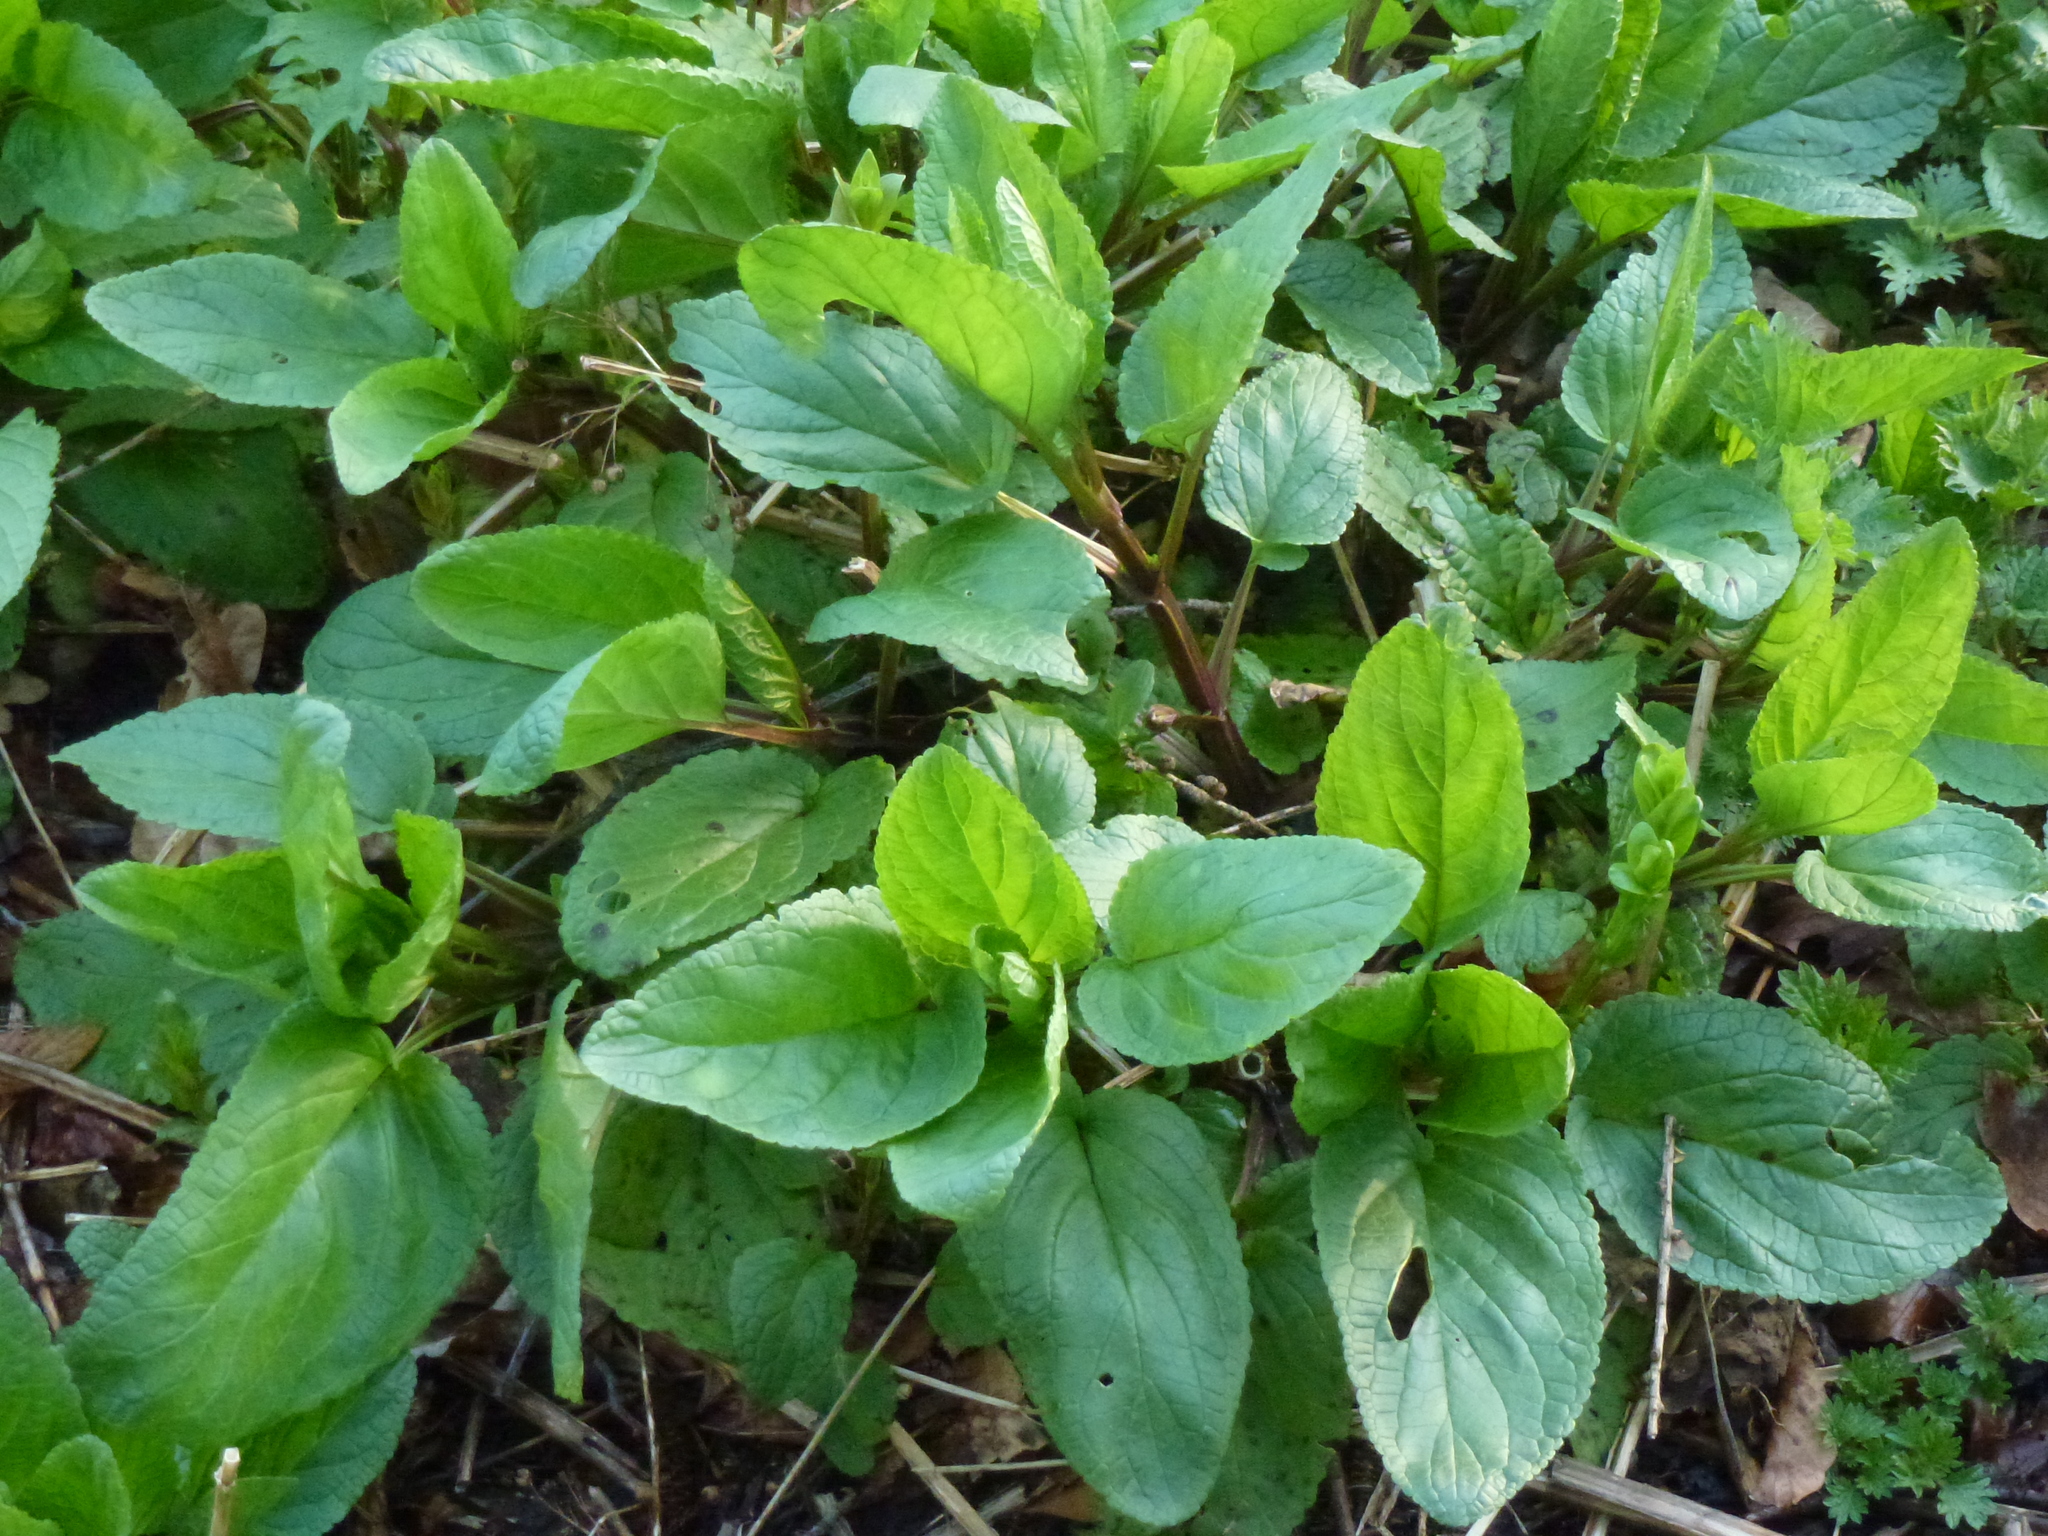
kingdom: Plantae
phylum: Tracheophyta
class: Magnoliopsida
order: Lamiales
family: Scrophulariaceae
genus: Scrophularia
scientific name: Scrophularia auriculata
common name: Water betony
